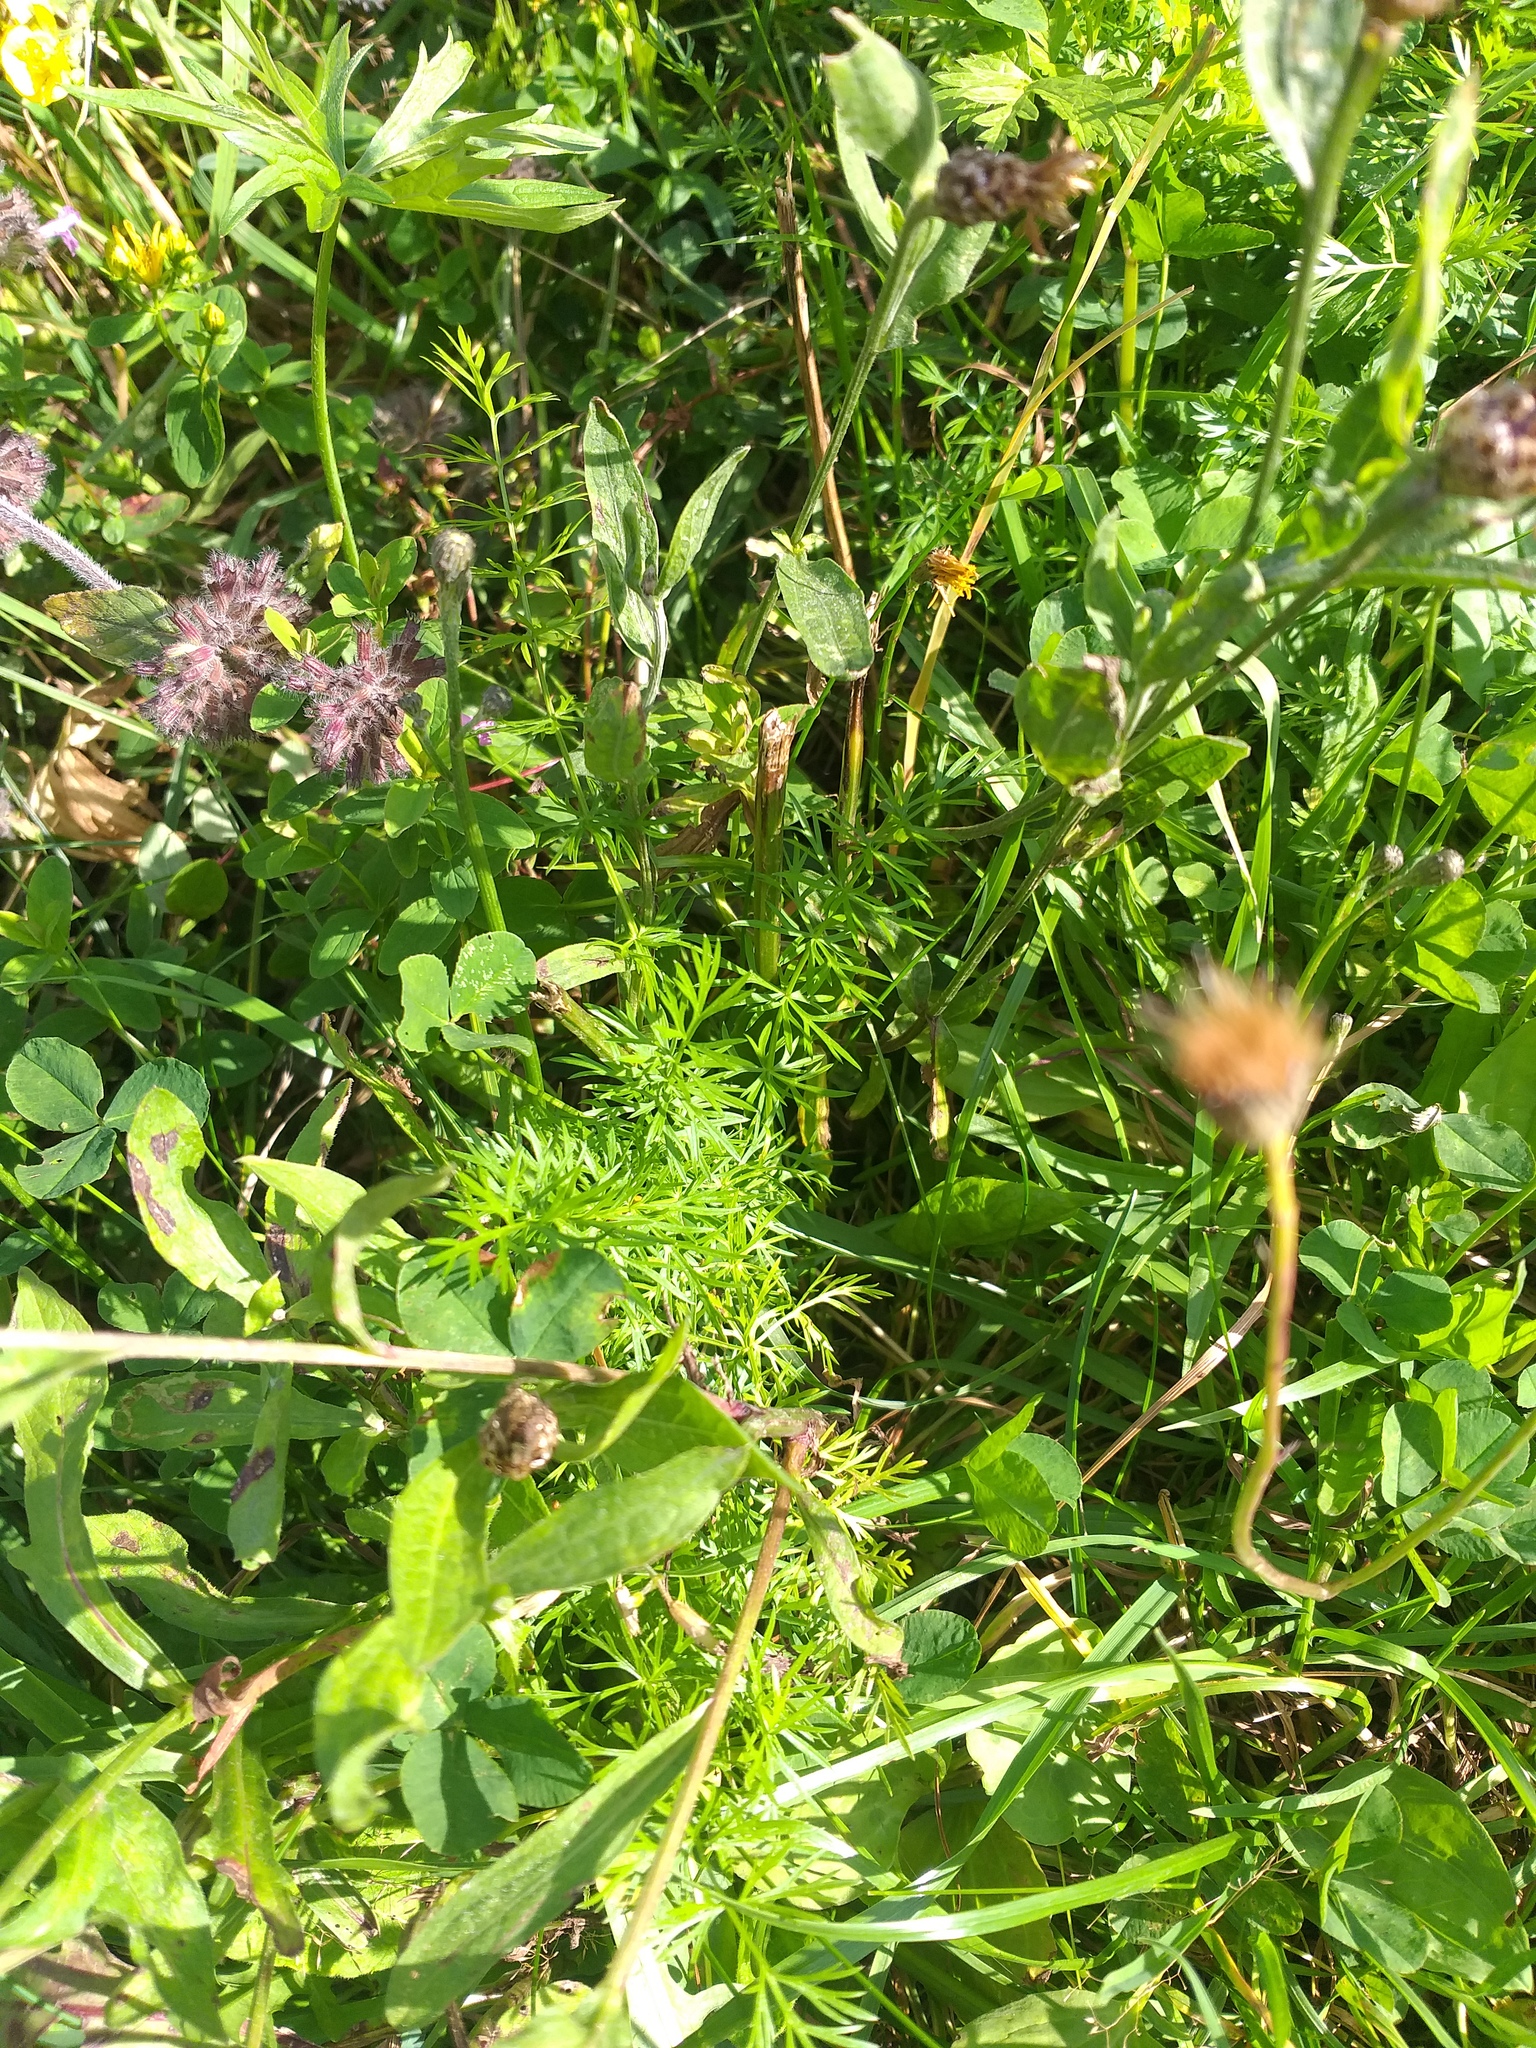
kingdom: Plantae
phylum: Tracheophyta
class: Magnoliopsida
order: Apiales
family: Apiaceae
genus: Carum
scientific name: Carum carvi
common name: Caraway
